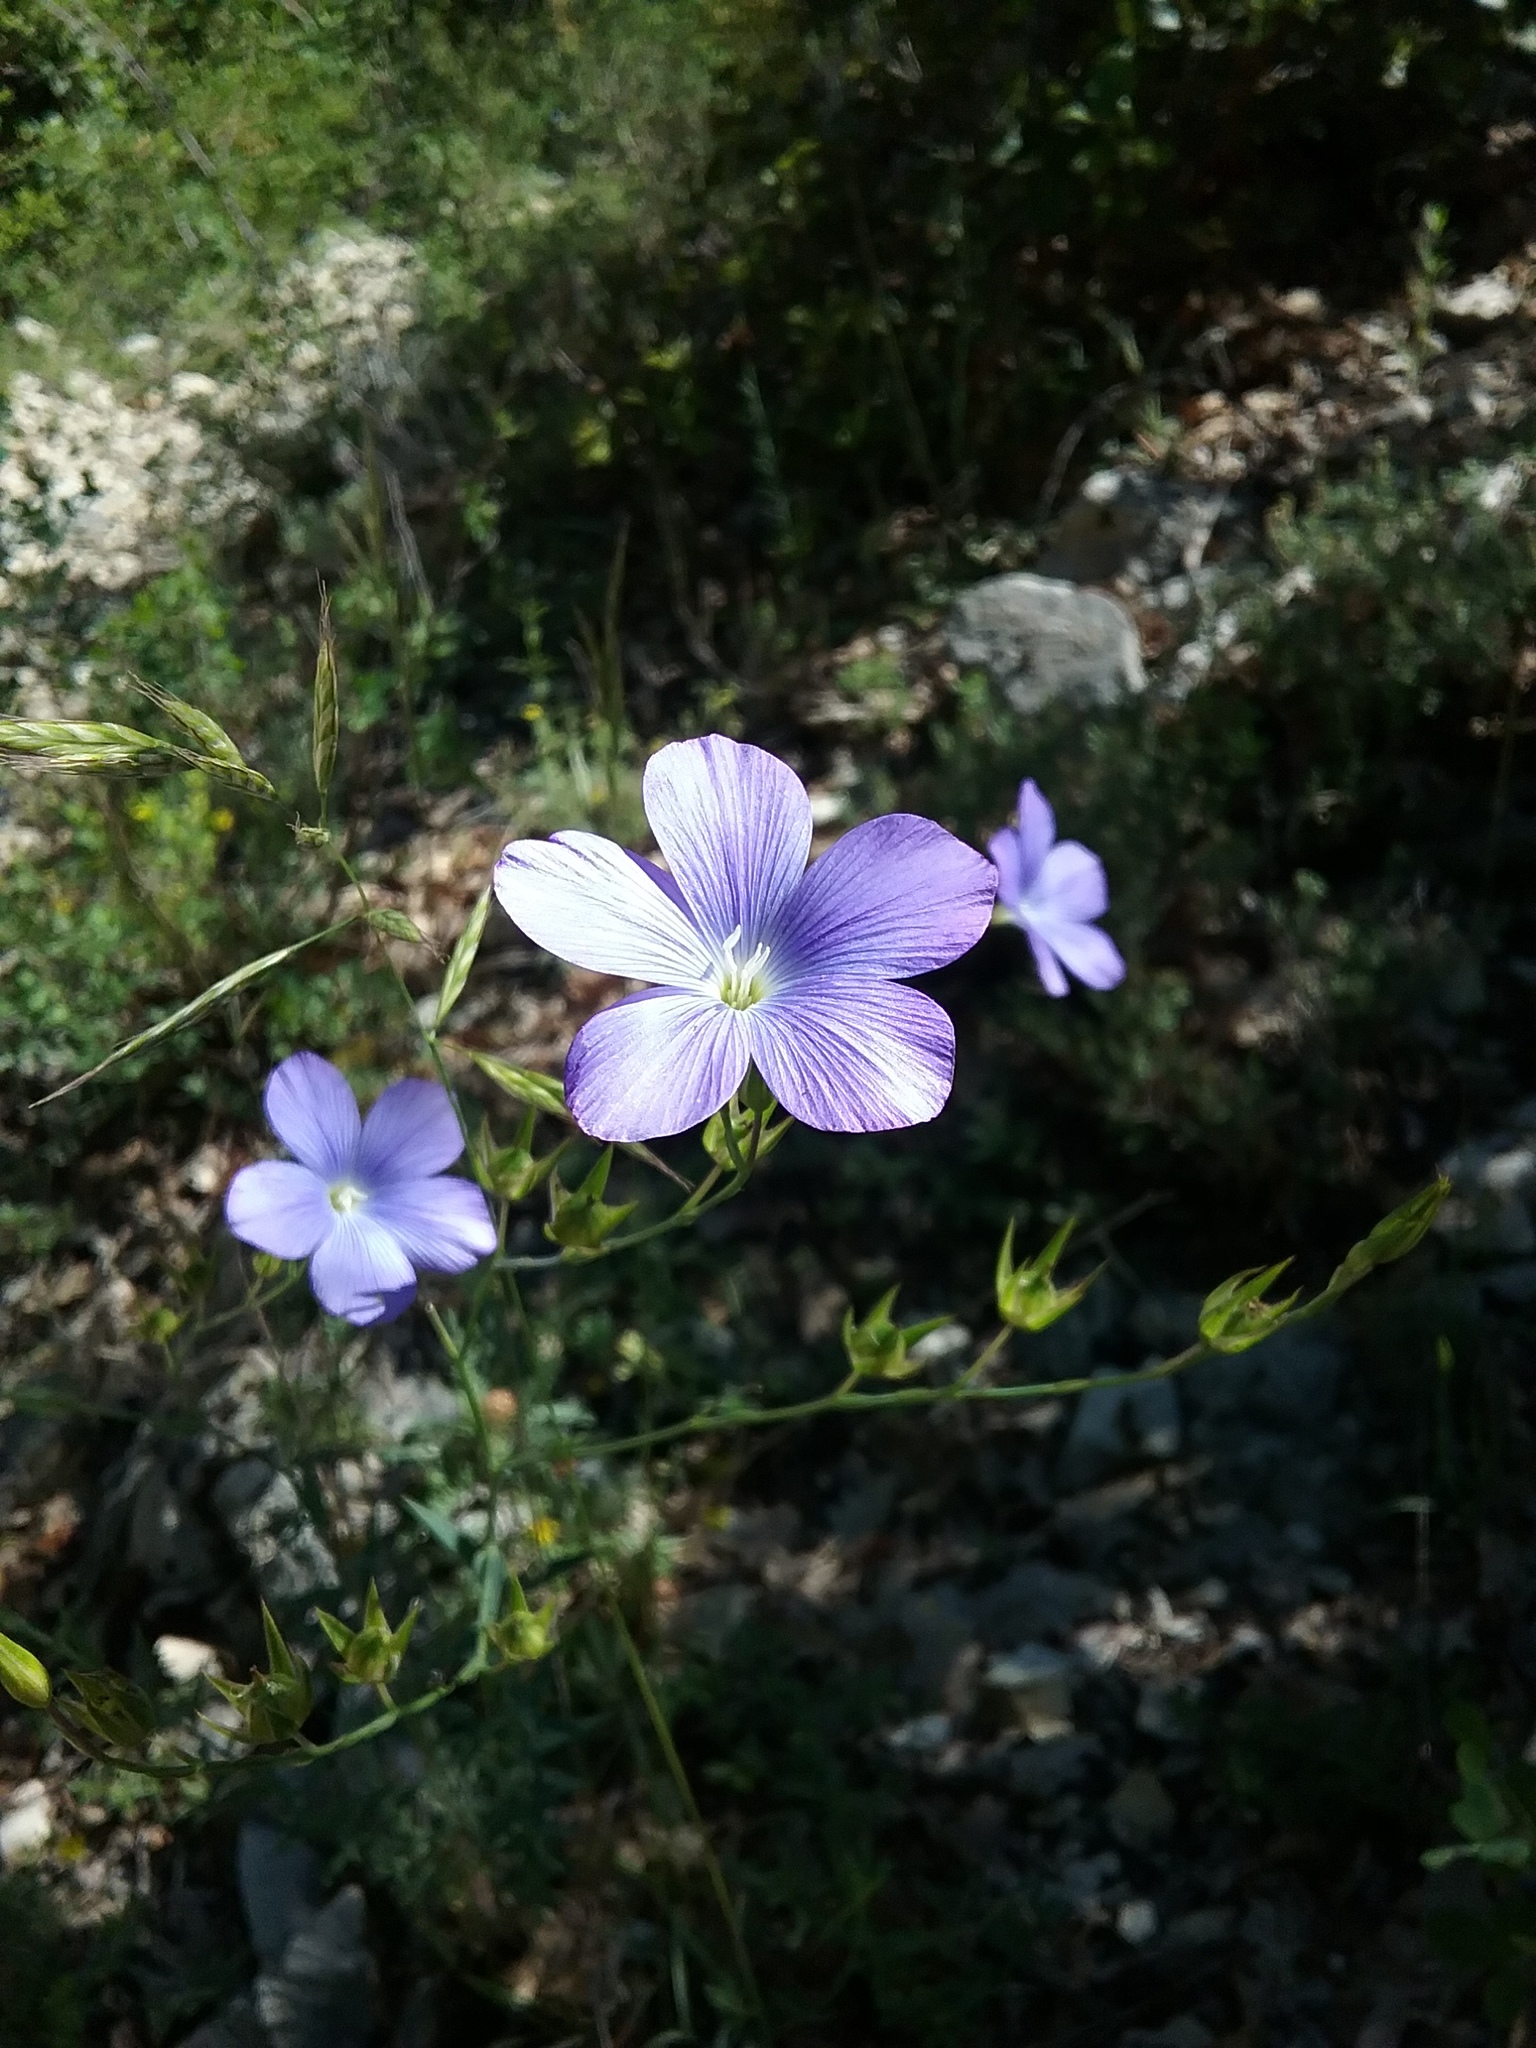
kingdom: Plantae
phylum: Tracheophyta
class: Magnoliopsida
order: Malpighiales
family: Linaceae
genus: Linum
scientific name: Linum narbonense
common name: Flax
